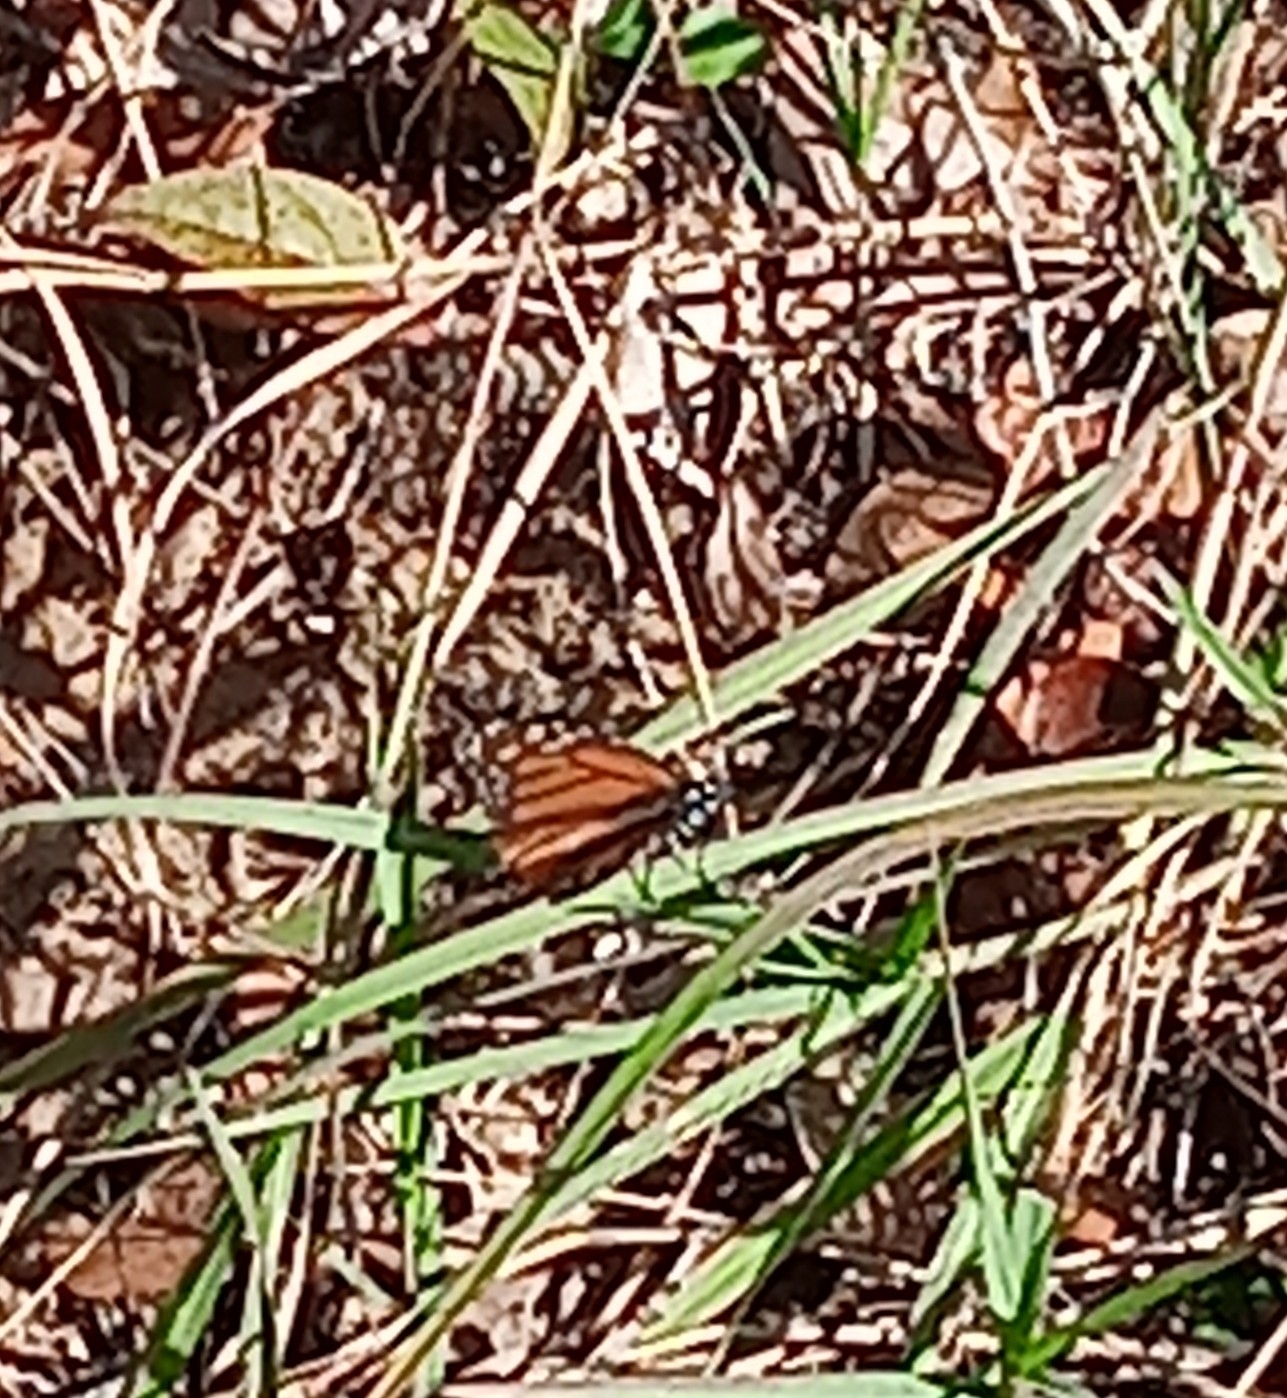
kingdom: Animalia
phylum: Arthropoda
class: Insecta
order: Lepidoptera
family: Nymphalidae
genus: Danaus
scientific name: Danaus plexippus
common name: Monarch
